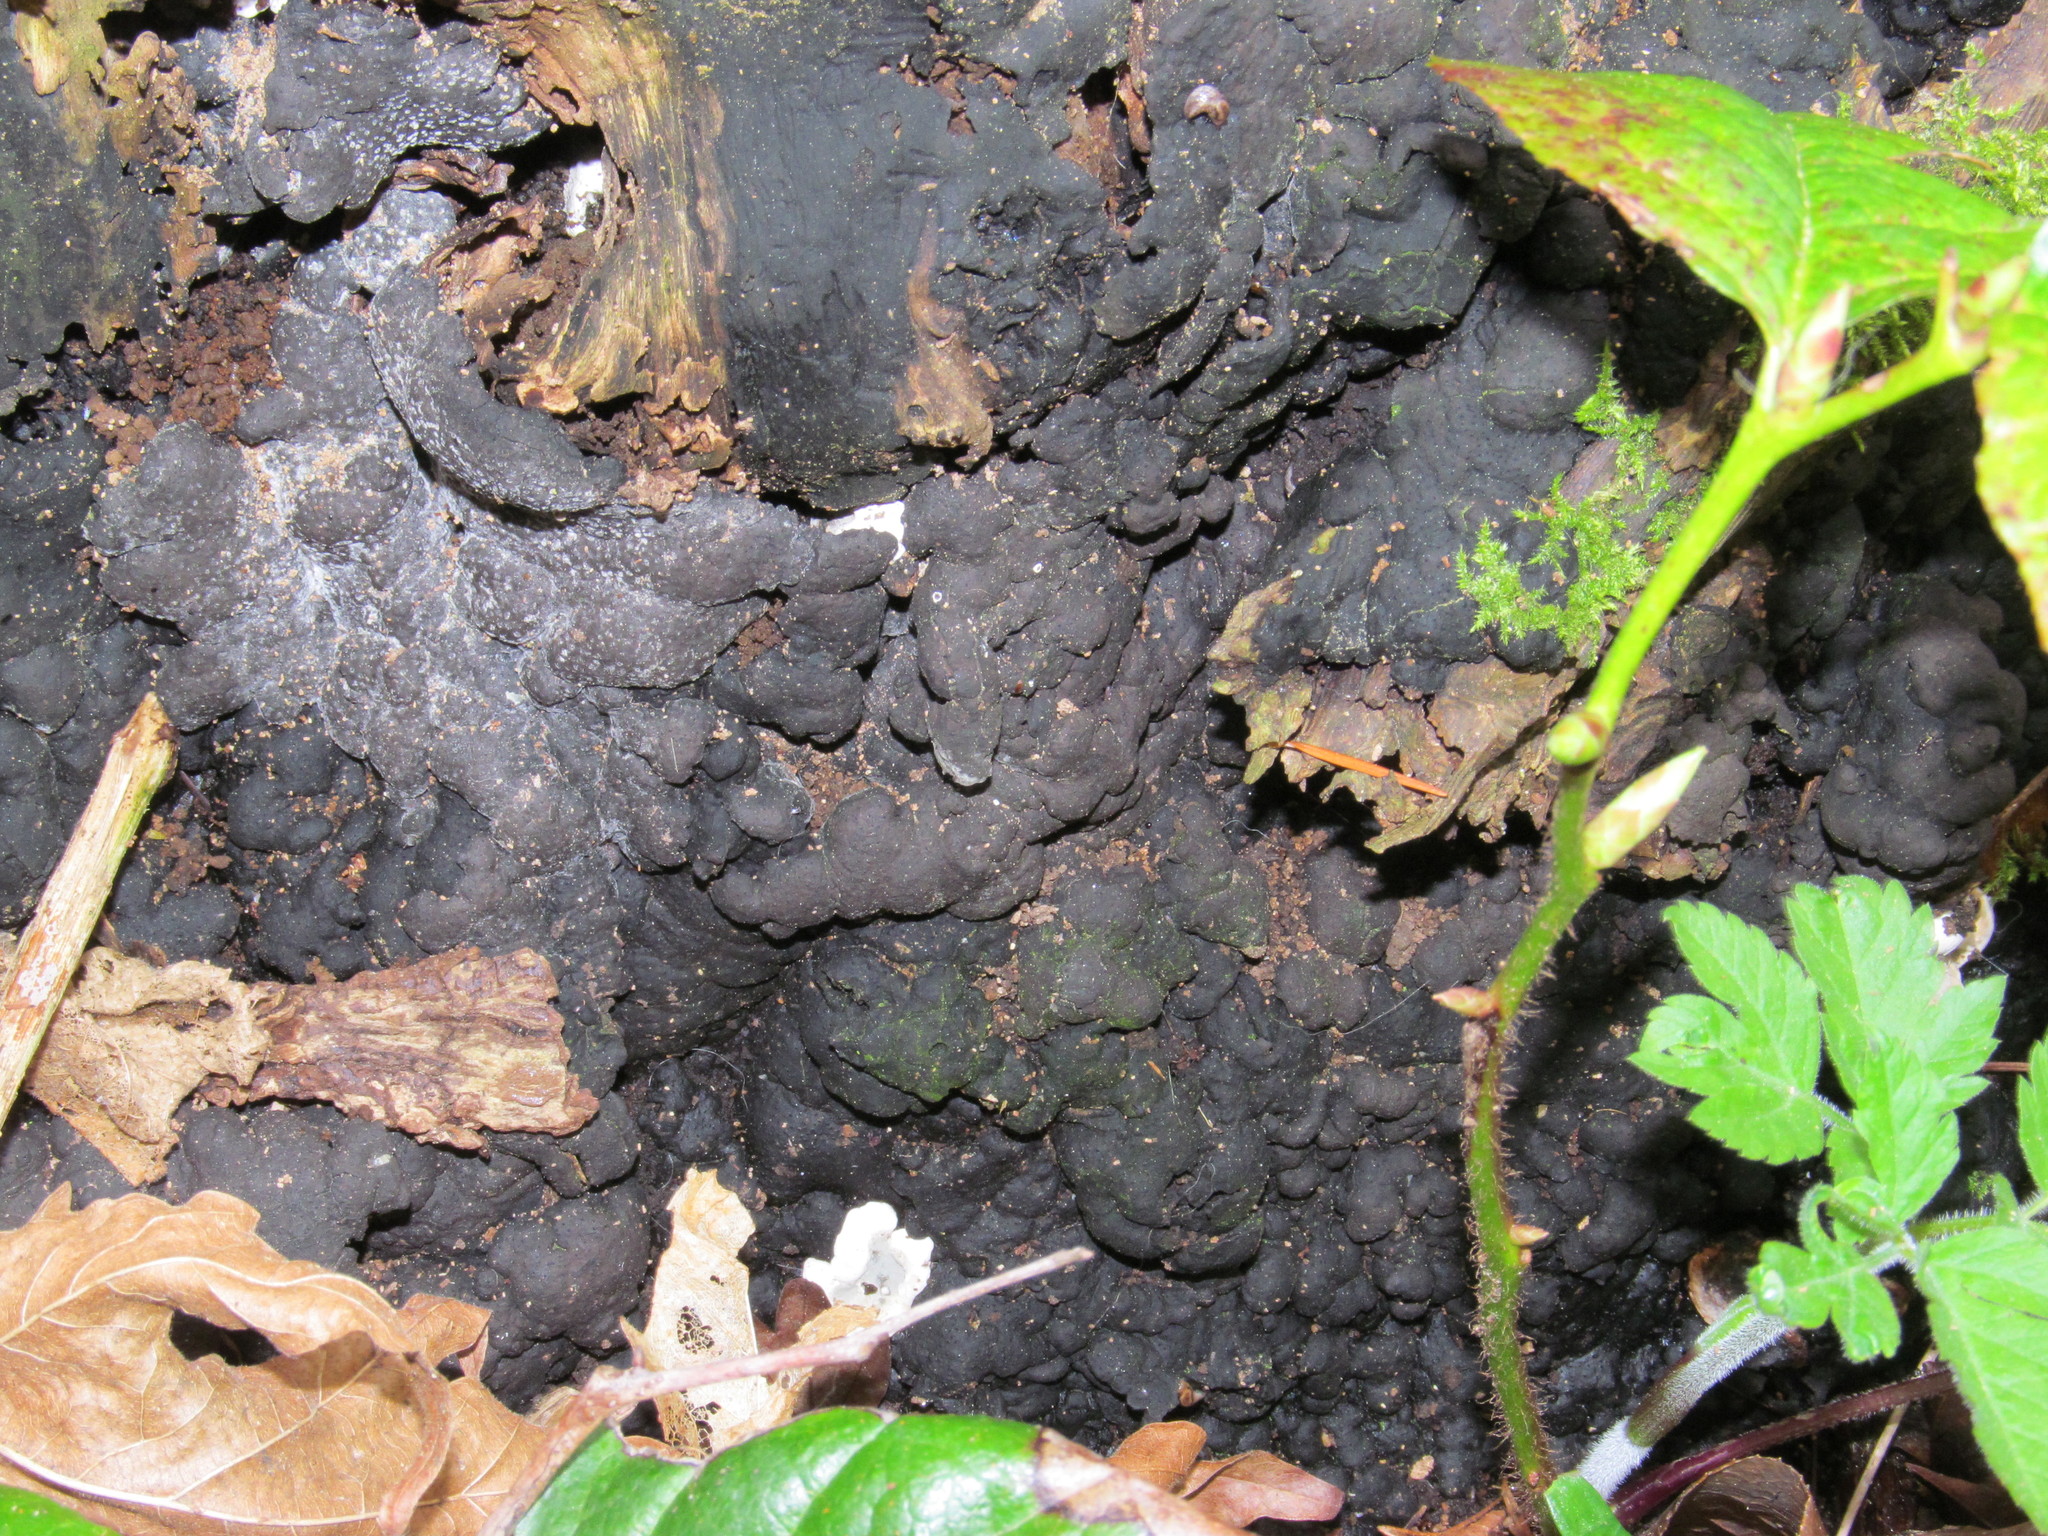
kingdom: Fungi
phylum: Ascomycota
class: Sordariomycetes
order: Xylariales
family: Xylariaceae
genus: Kretzschmaria
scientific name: Kretzschmaria deusta
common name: Brittle cinder
